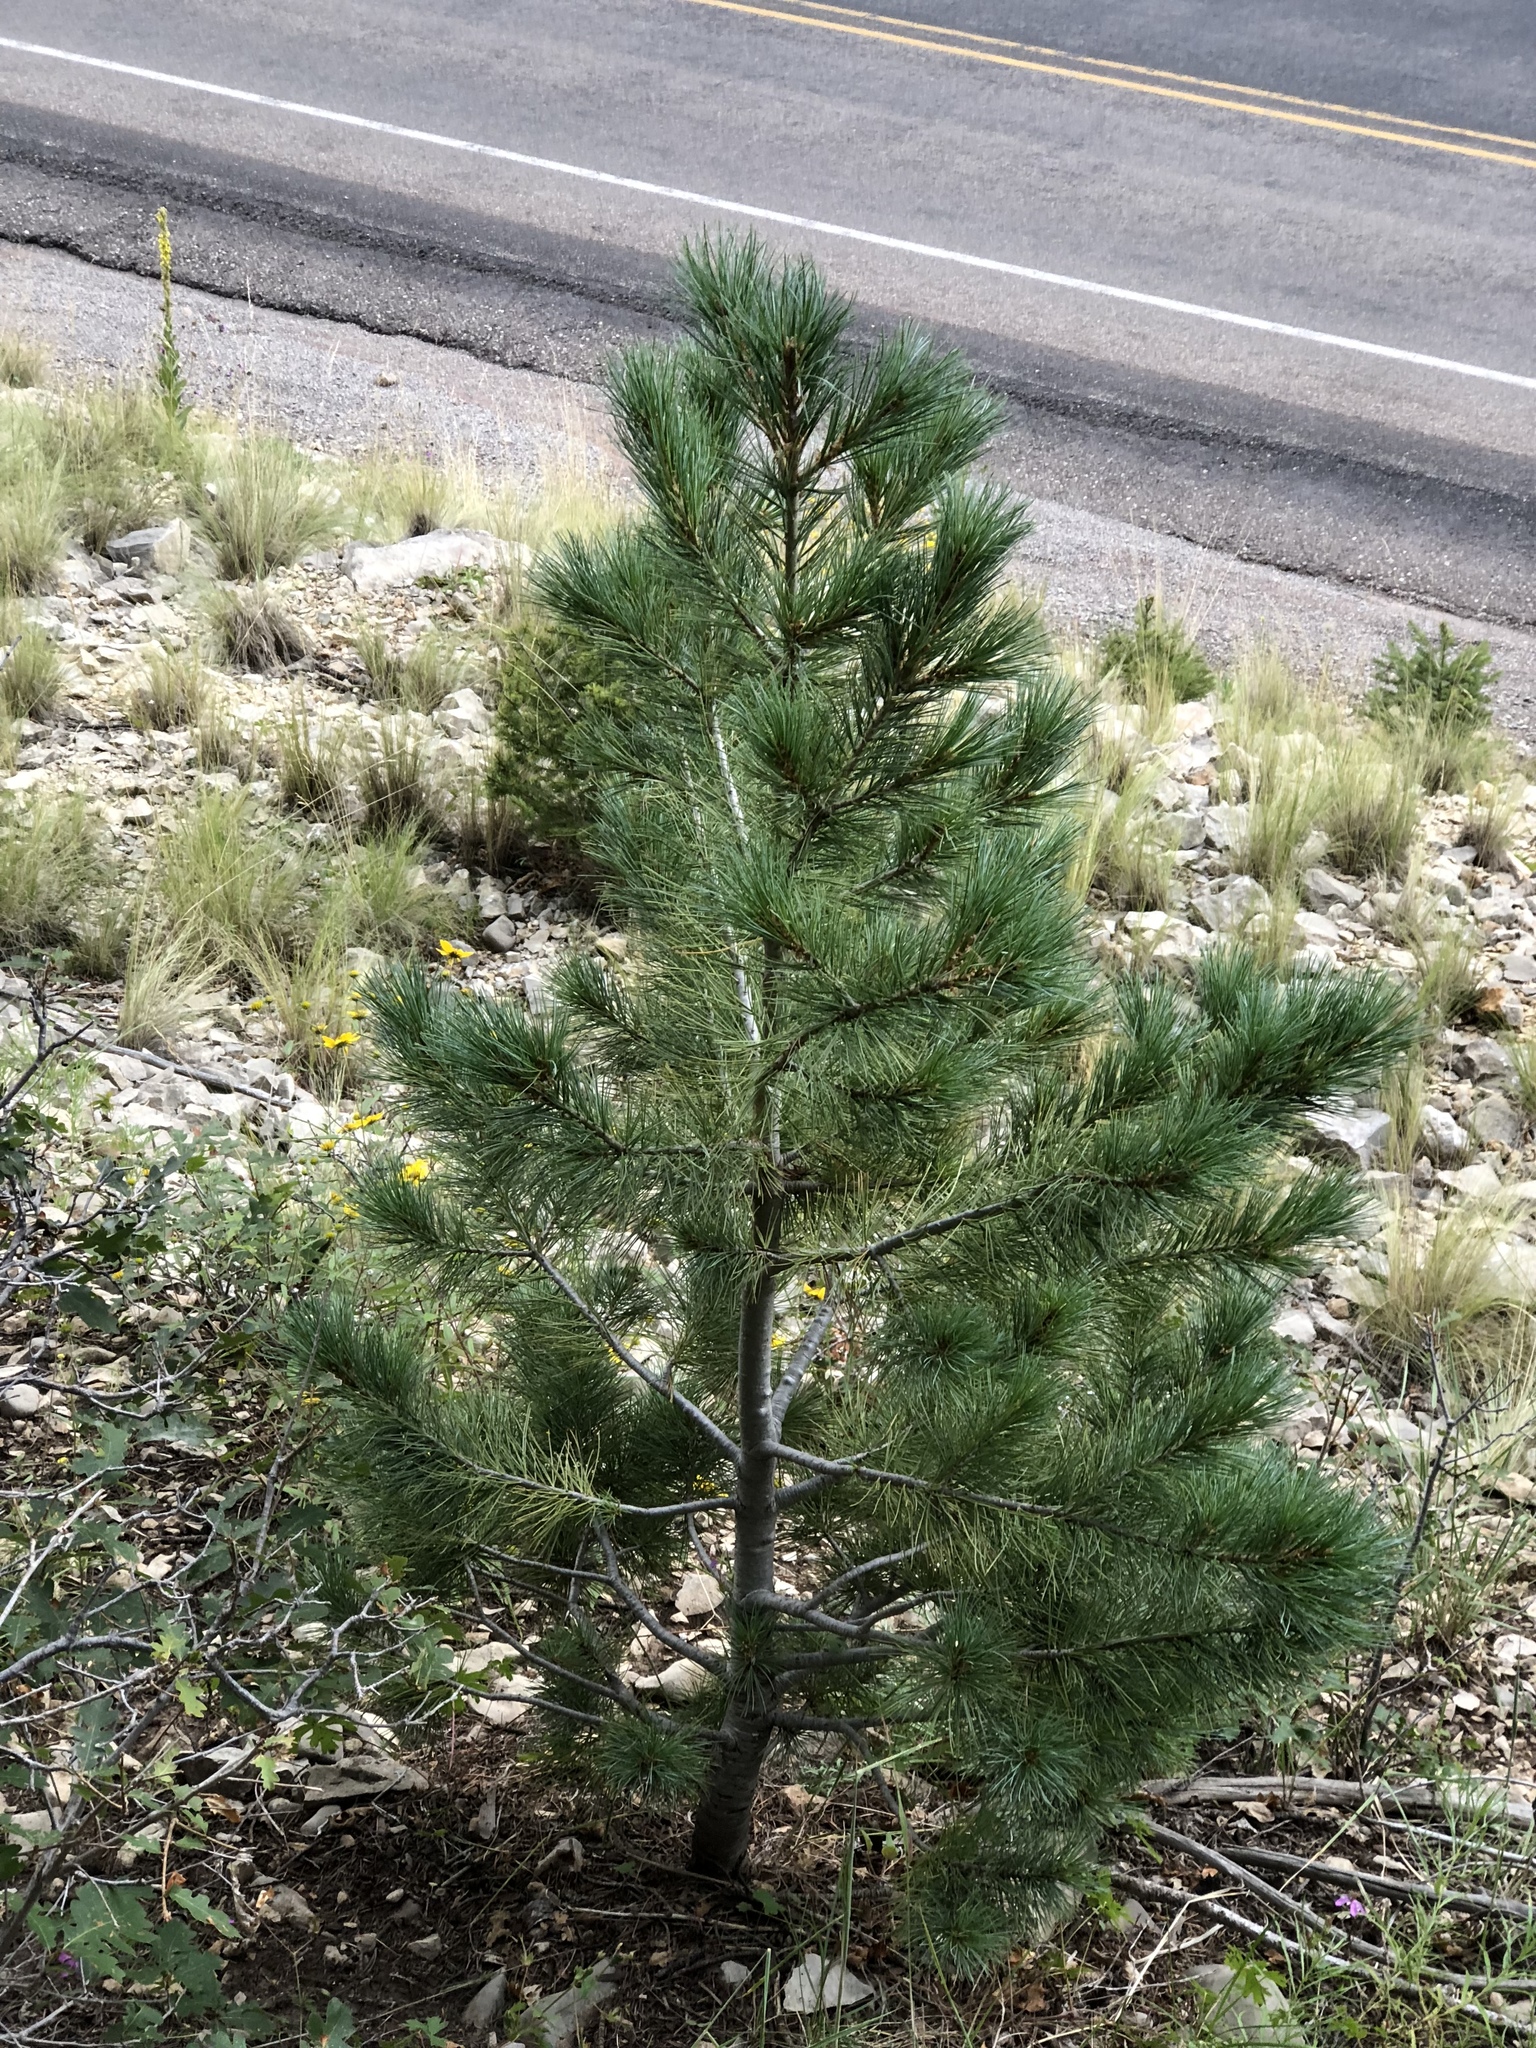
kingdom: Plantae
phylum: Tracheophyta
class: Pinopsida
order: Pinales
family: Pinaceae
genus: Pinus
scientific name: Pinus ponderosa
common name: Western yellow-pine
